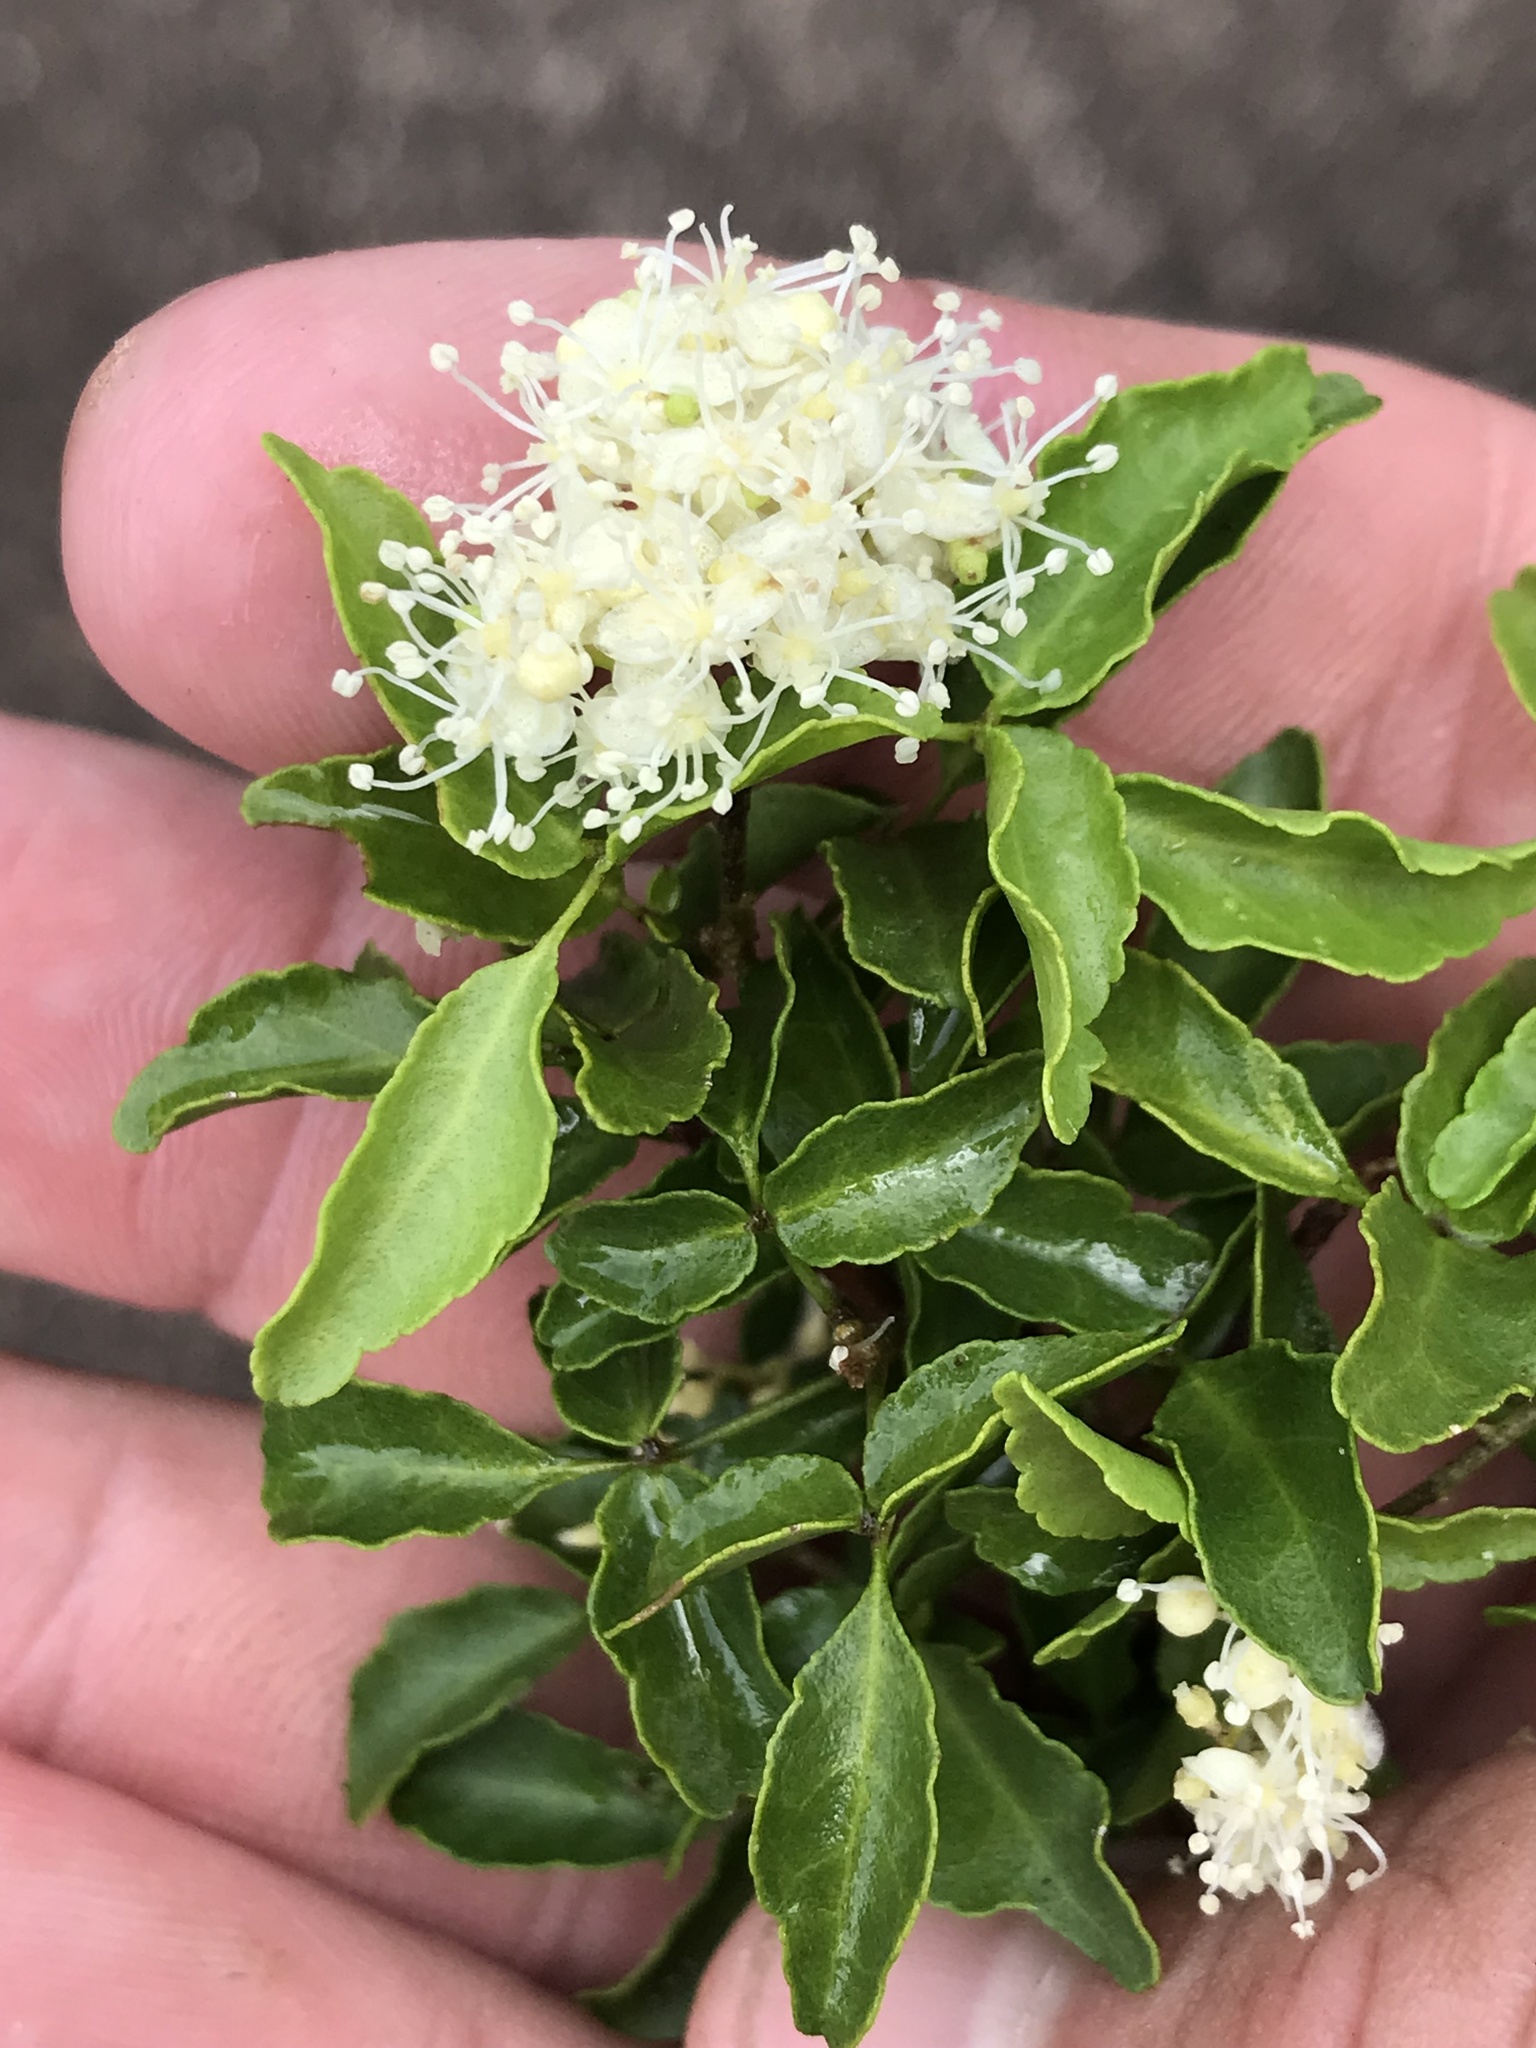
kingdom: Plantae
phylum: Tracheophyta
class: Magnoliopsida
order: Sapindales
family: Rutaceae
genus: Amyris
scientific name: Amyris texana
